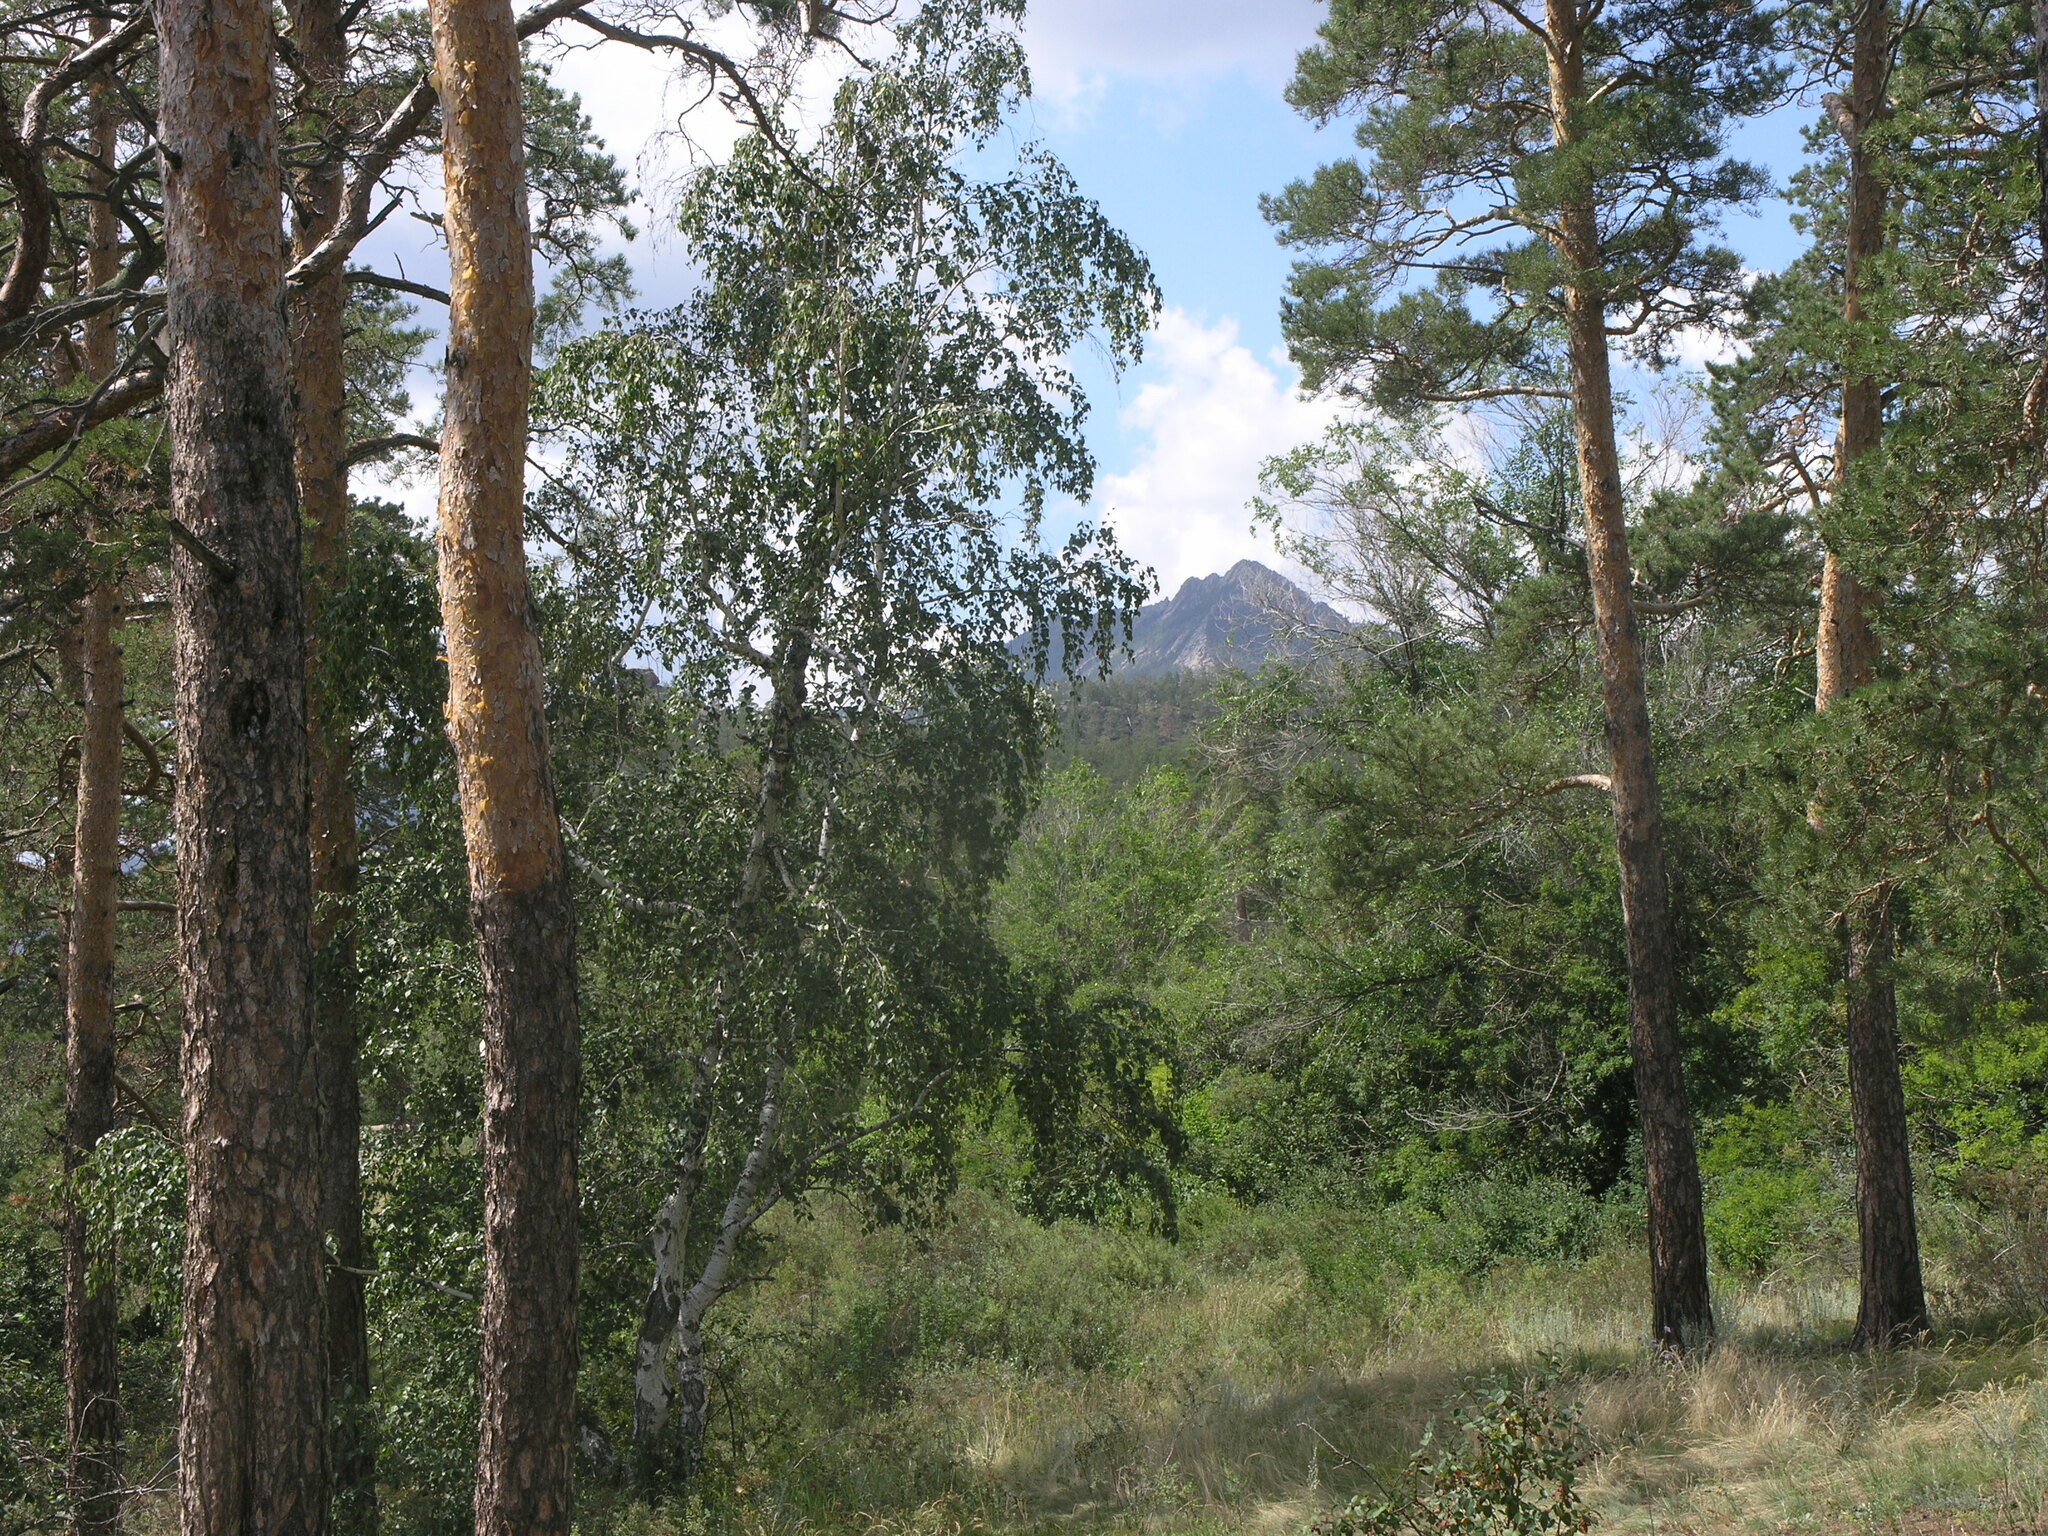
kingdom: Plantae
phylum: Tracheophyta
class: Pinopsida
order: Pinales
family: Pinaceae
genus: Pinus
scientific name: Pinus sylvestris
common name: Scots pine
